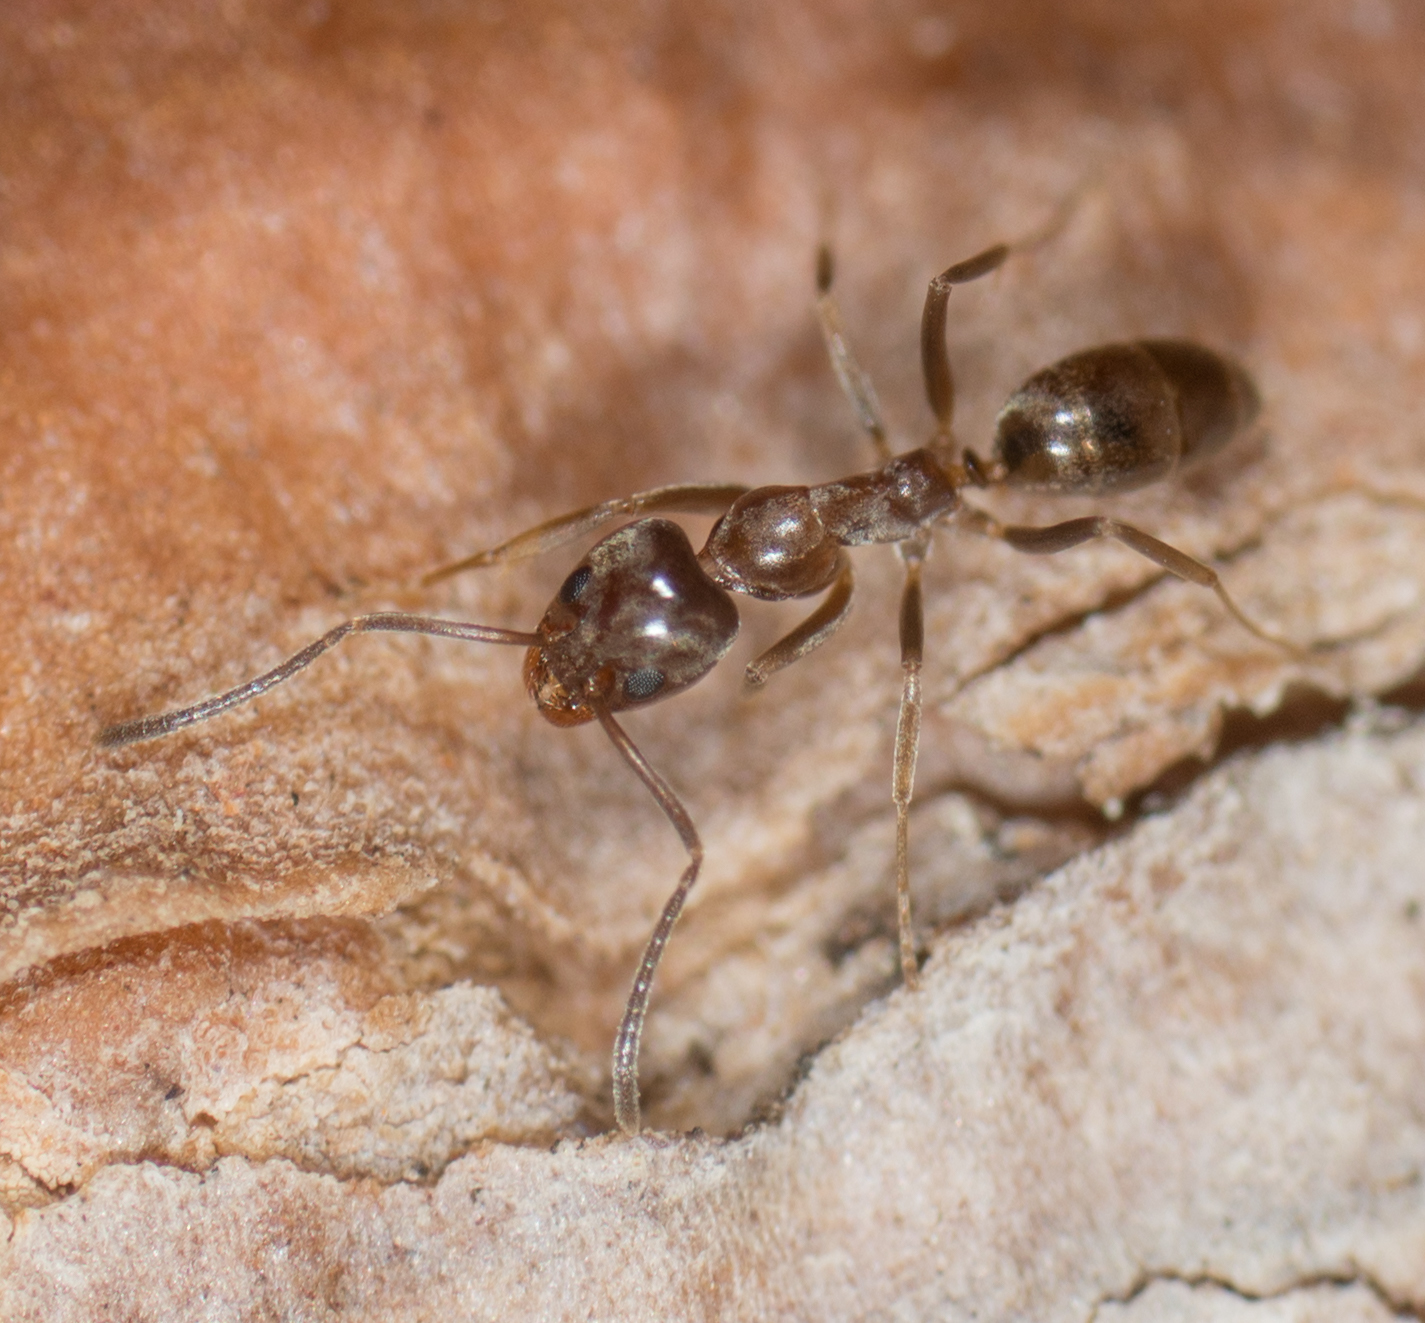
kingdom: Animalia
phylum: Arthropoda
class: Insecta
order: Hymenoptera
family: Formicidae
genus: Linepithema
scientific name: Linepithema humile
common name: Argentine ant
